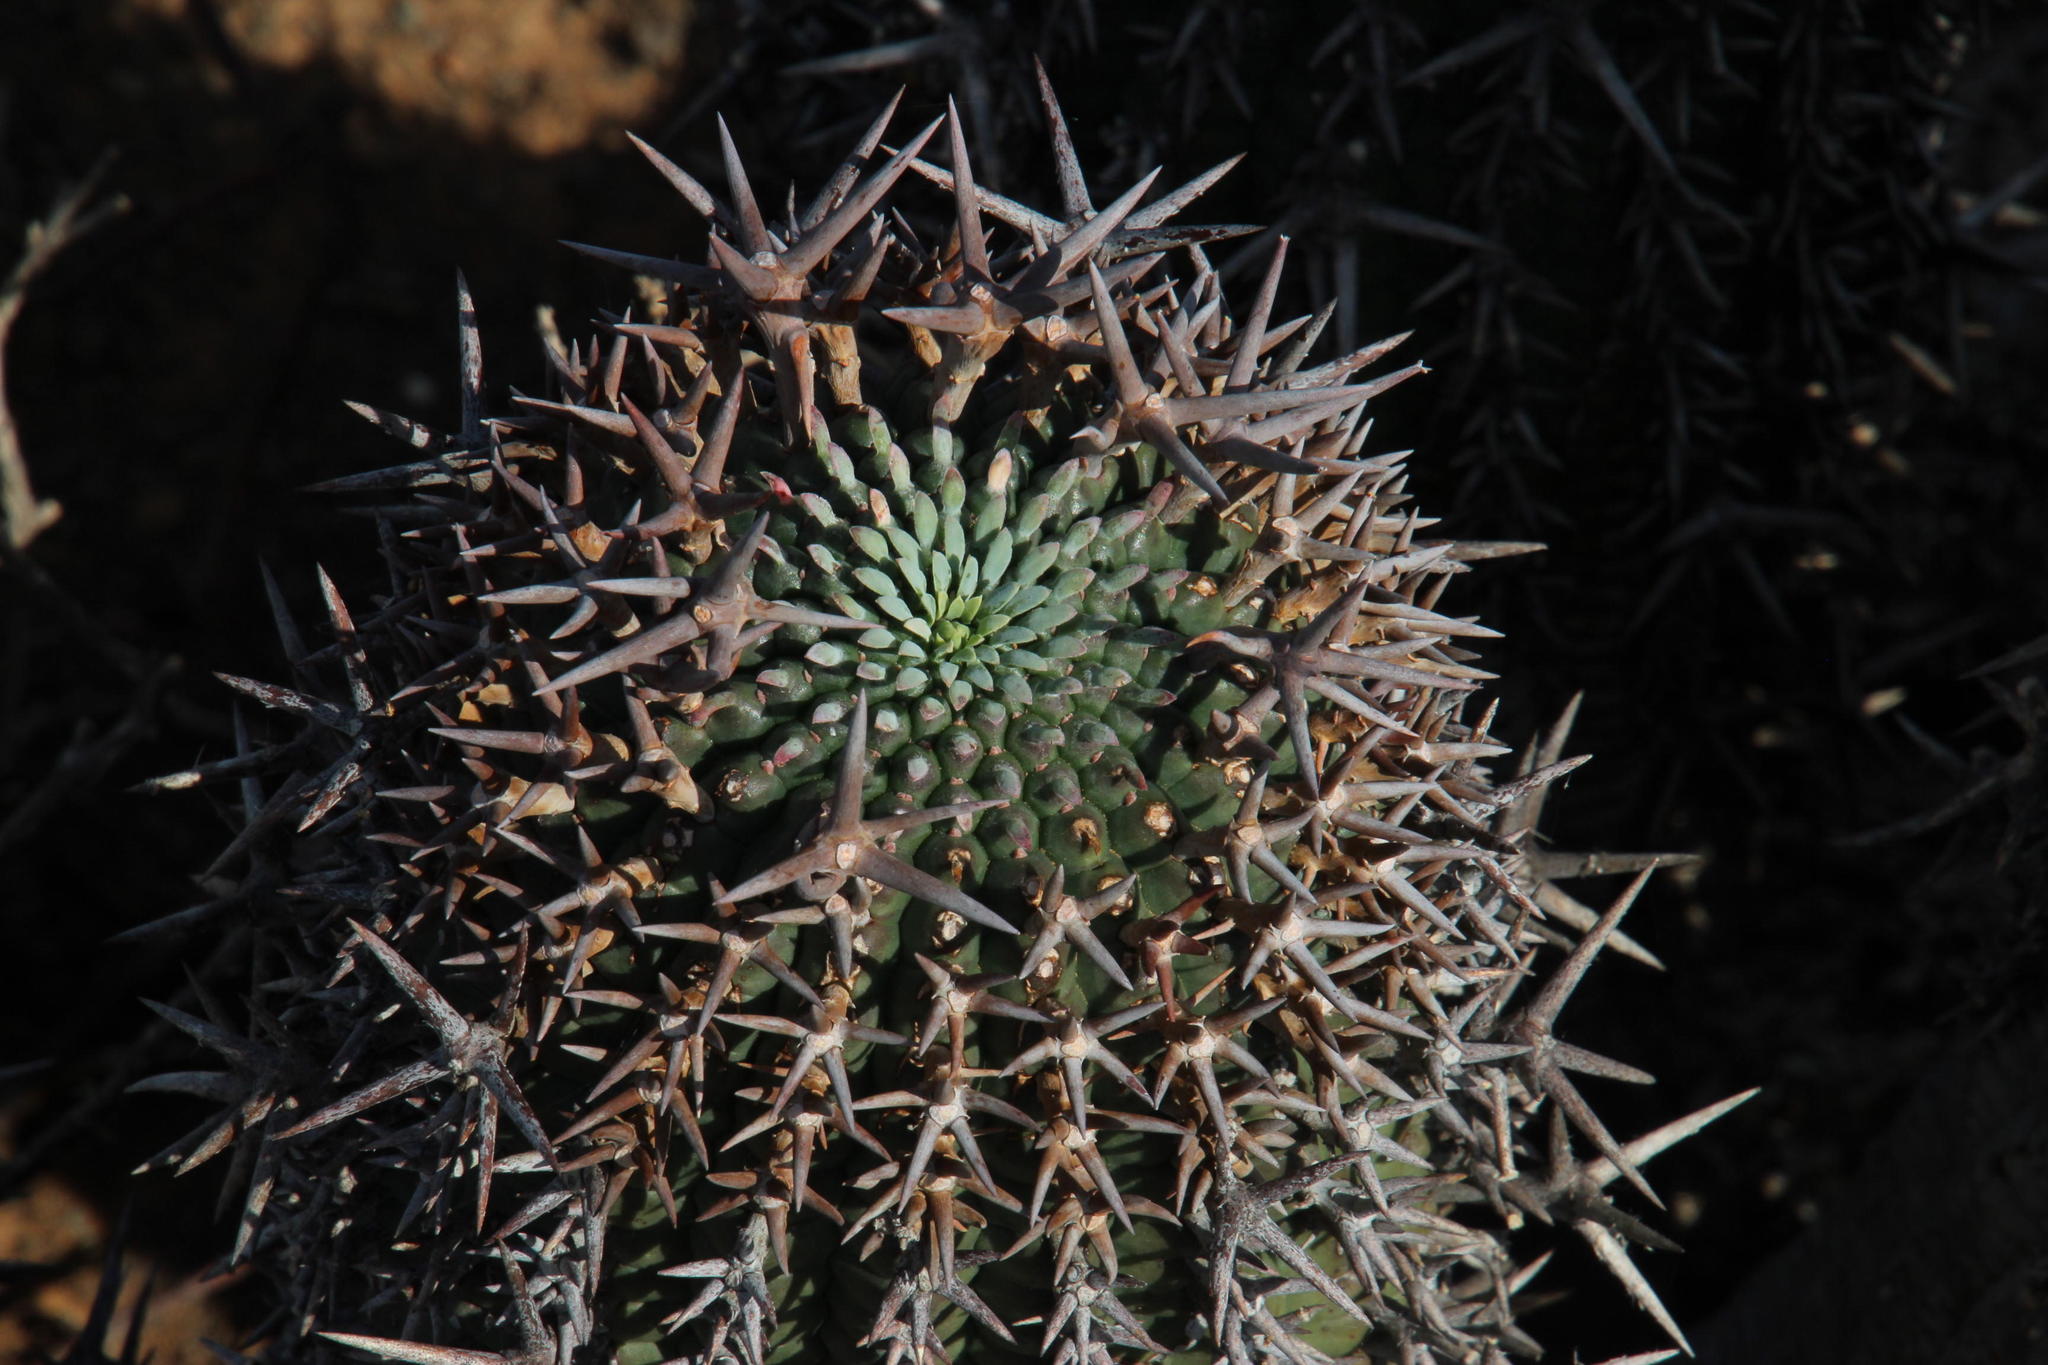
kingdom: Plantae
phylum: Tracheophyta
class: Magnoliopsida
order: Malpighiales
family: Euphorbiaceae
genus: Euphorbia
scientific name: Euphorbia stellispina
